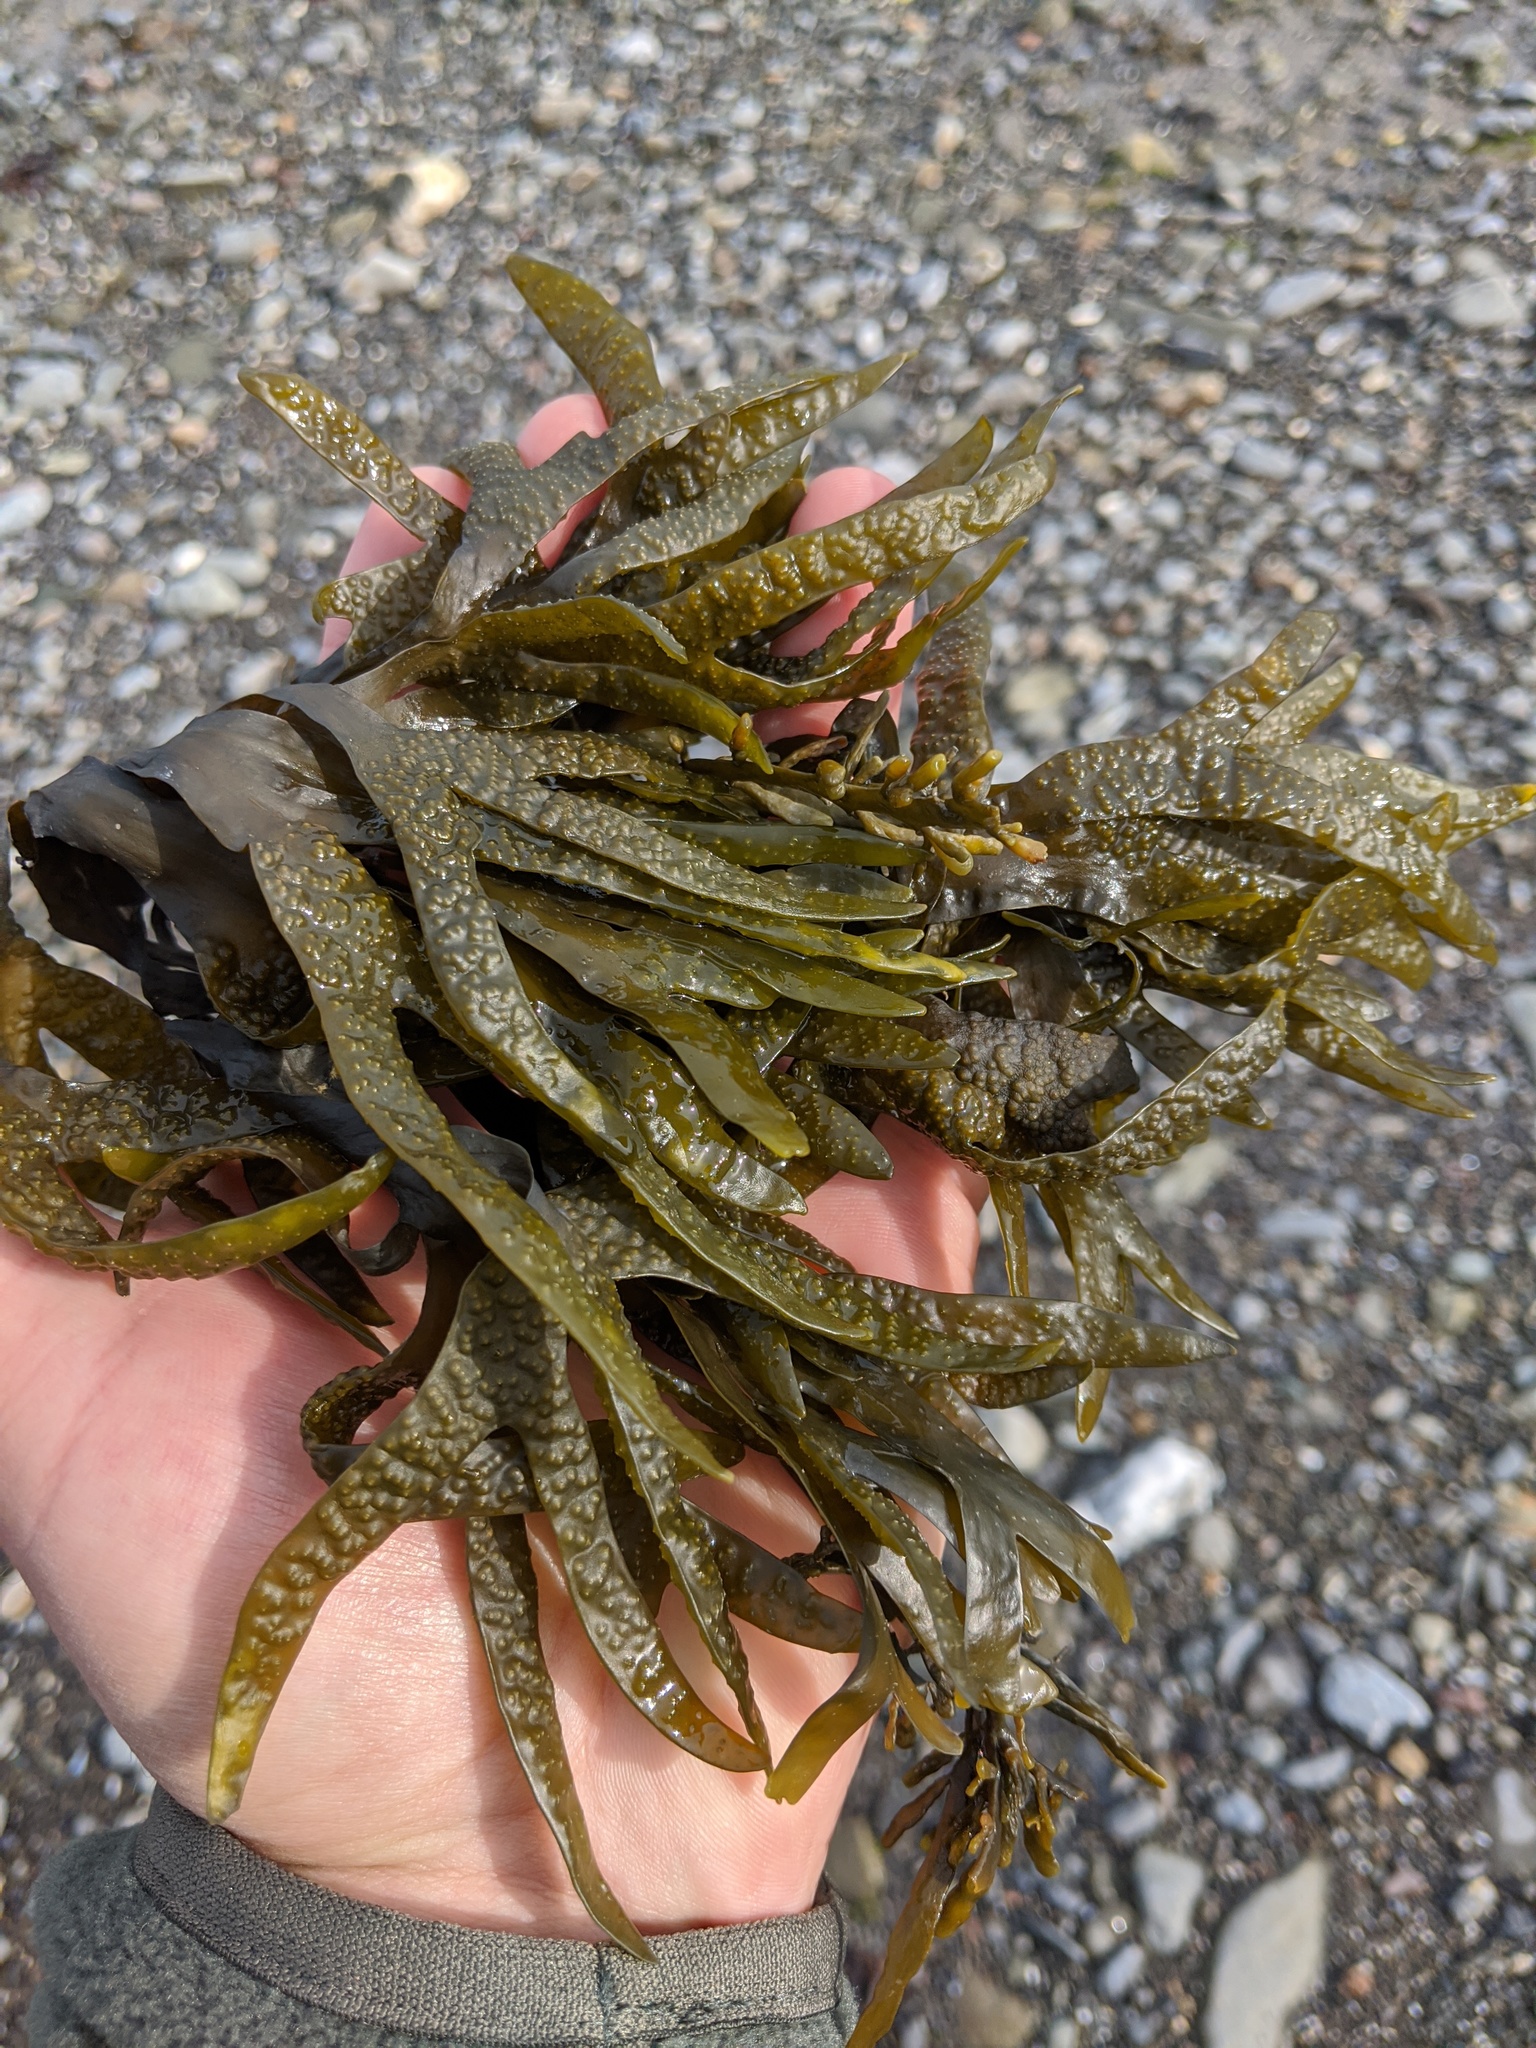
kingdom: Chromista
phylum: Ochrophyta
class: Phaeophyceae
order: Fucales
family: Fucaceae
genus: Fucus
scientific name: Fucus evanescens
